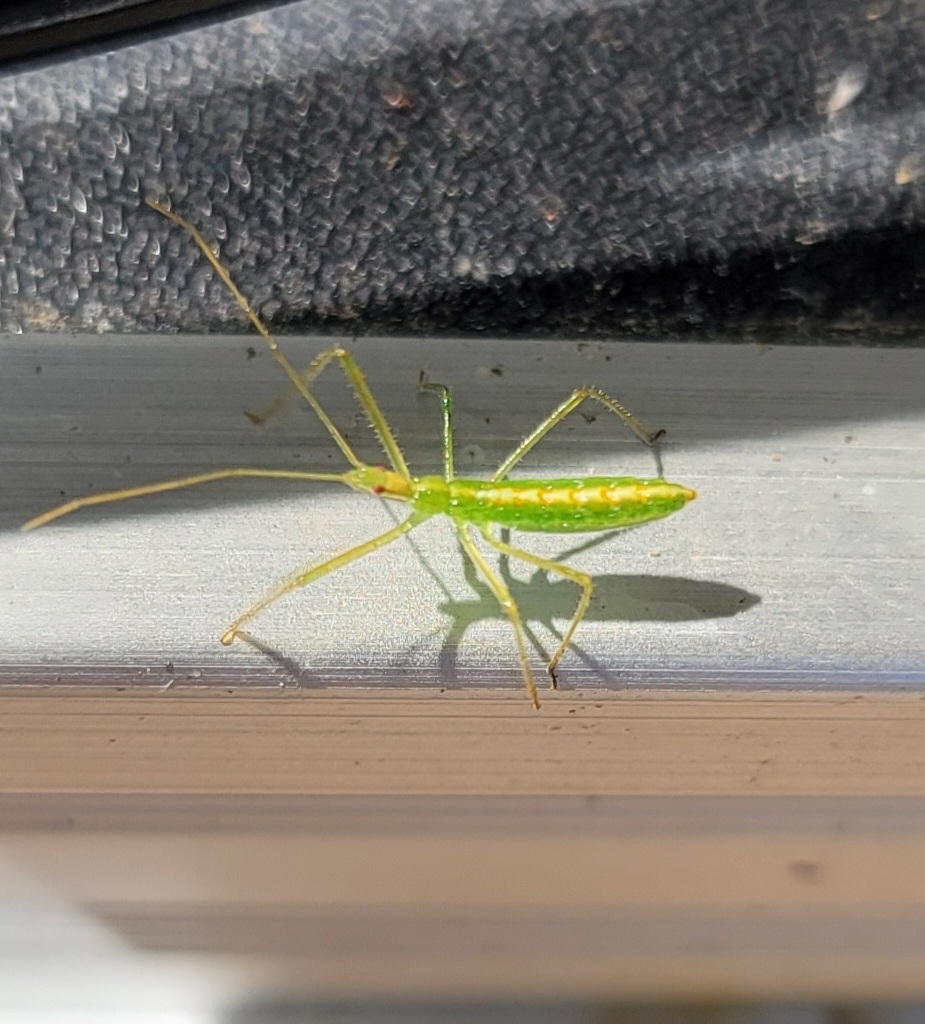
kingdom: Animalia
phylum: Arthropoda
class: Insecta
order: Hemiptera
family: Reduviidae
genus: Zelus
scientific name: Zelus luridus
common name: Pale green assassin bug
